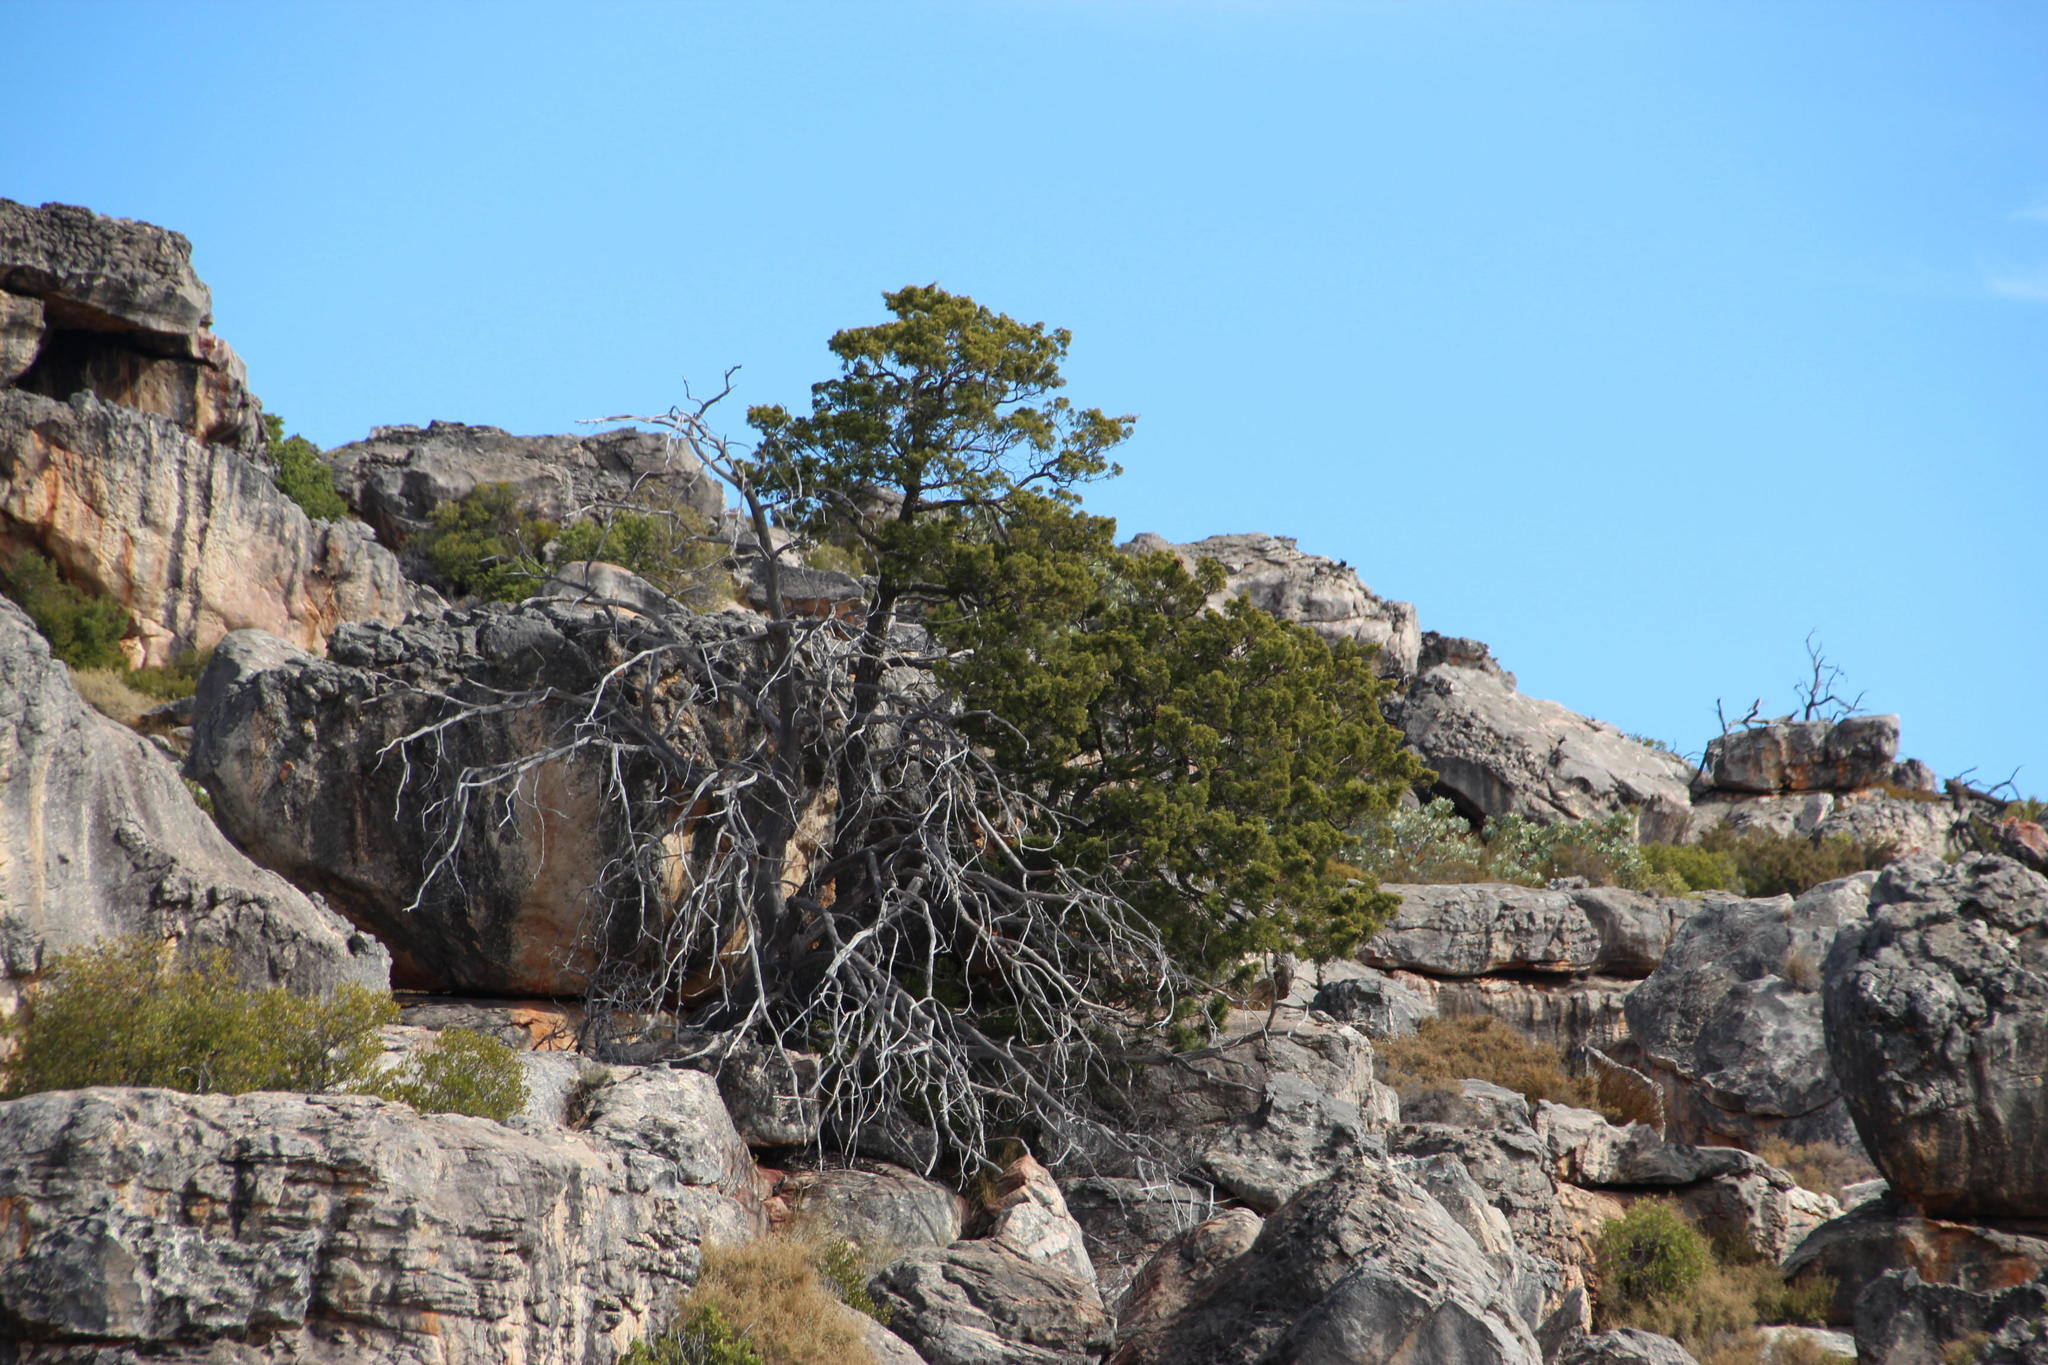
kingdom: Plantae
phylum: Tracheophyta
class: Pinopsida
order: Pinales
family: Cupressaceae
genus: Widdringtonia
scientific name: Widdringtonia nodiflora
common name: Cape cypress
